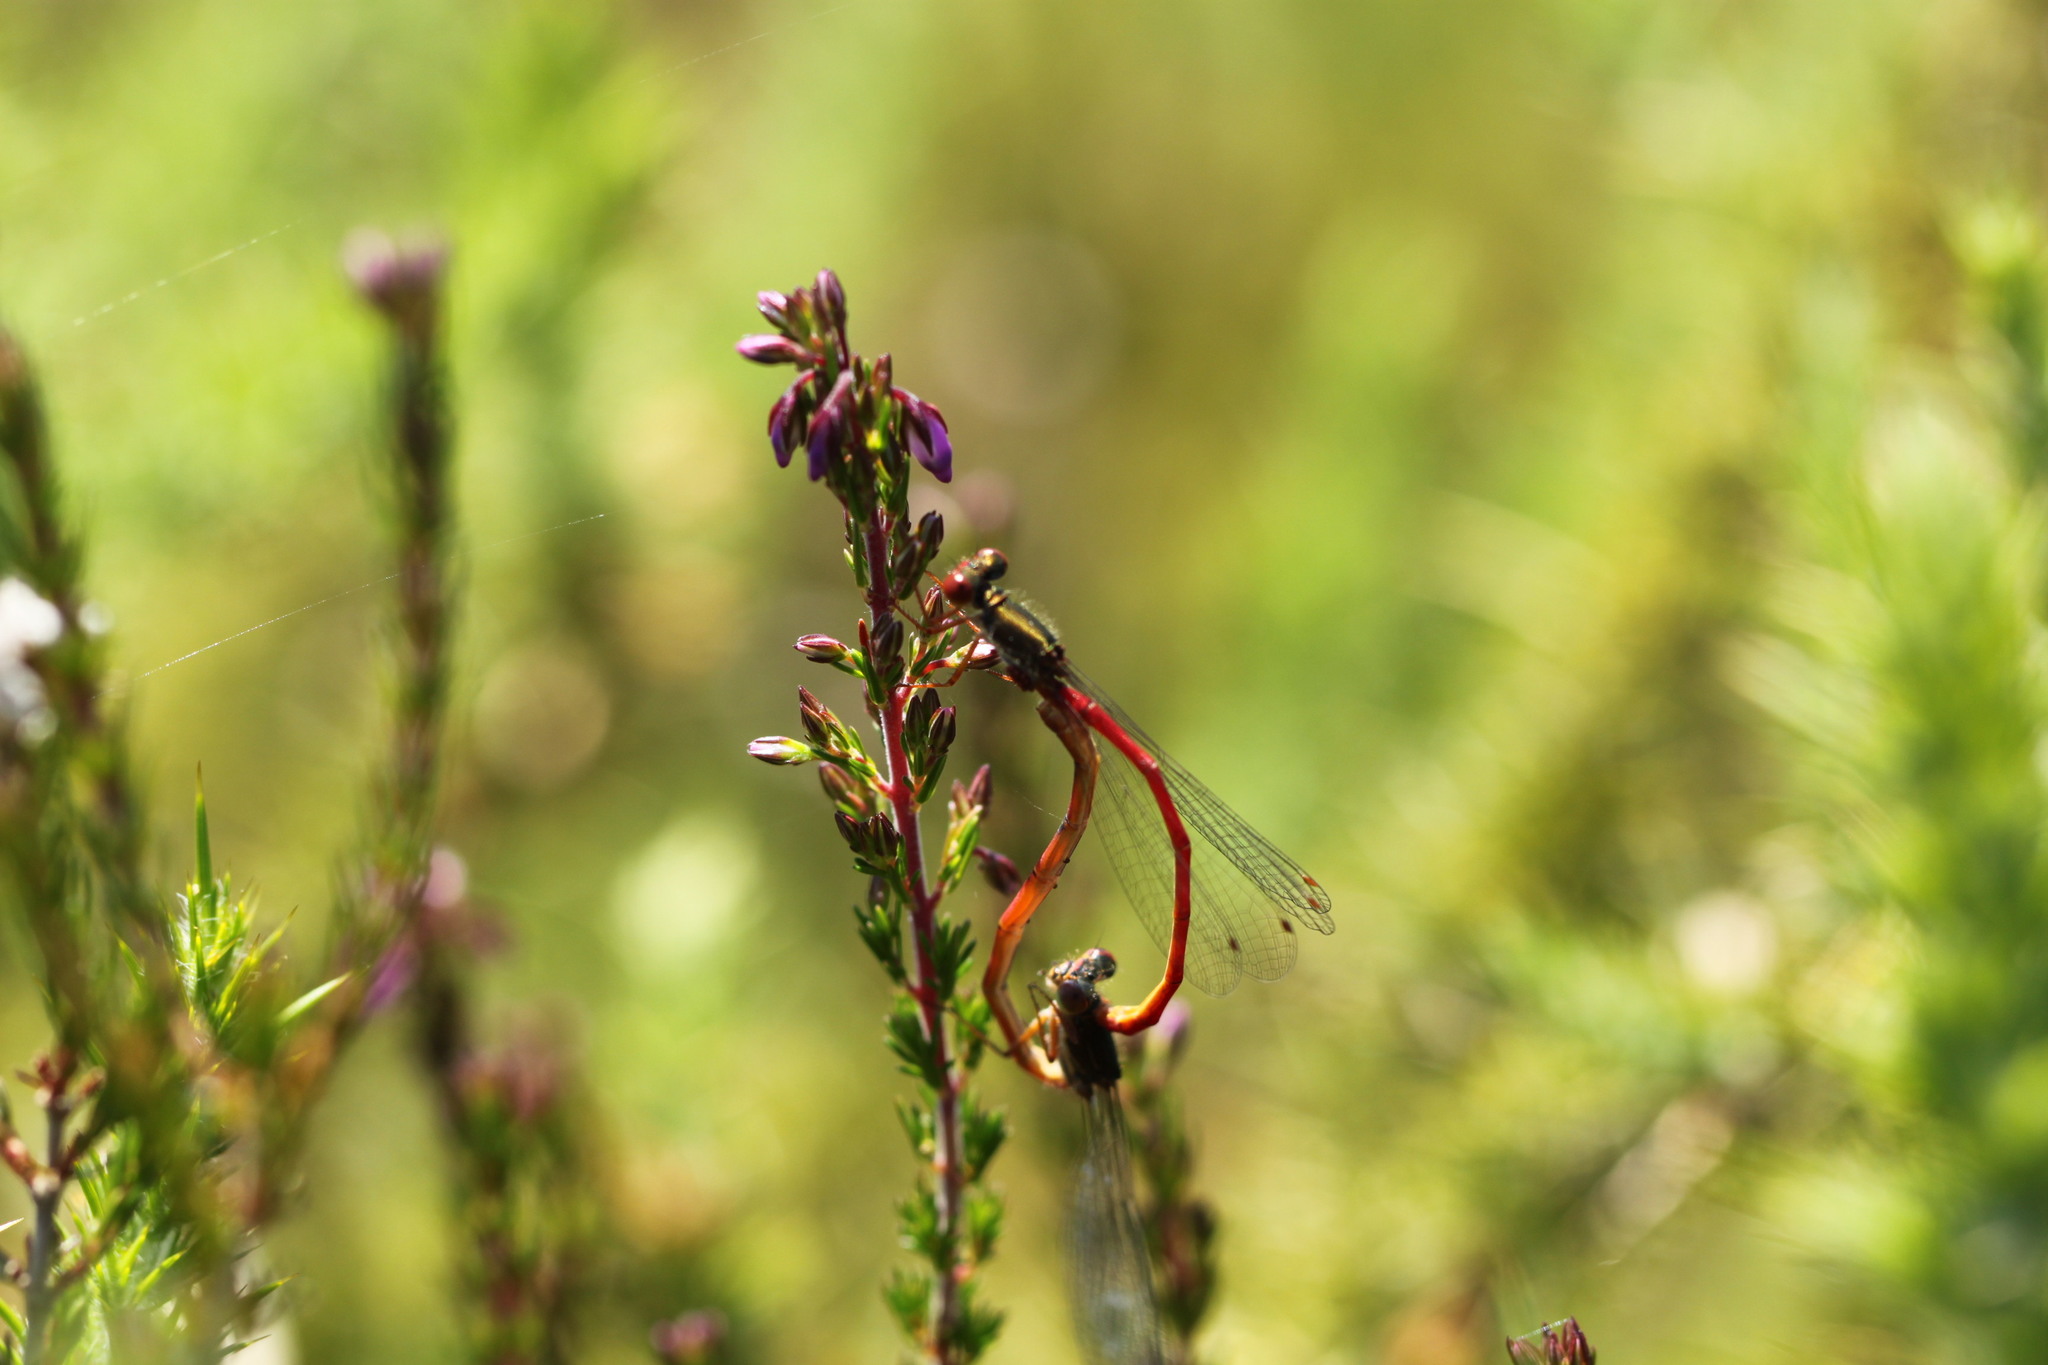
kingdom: Animalia
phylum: Arthropoda
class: Insecta
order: Odonata
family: Coenagrionidae
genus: Ceriagrion
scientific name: Ceriagrion tenellum
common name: Small red damselfly
